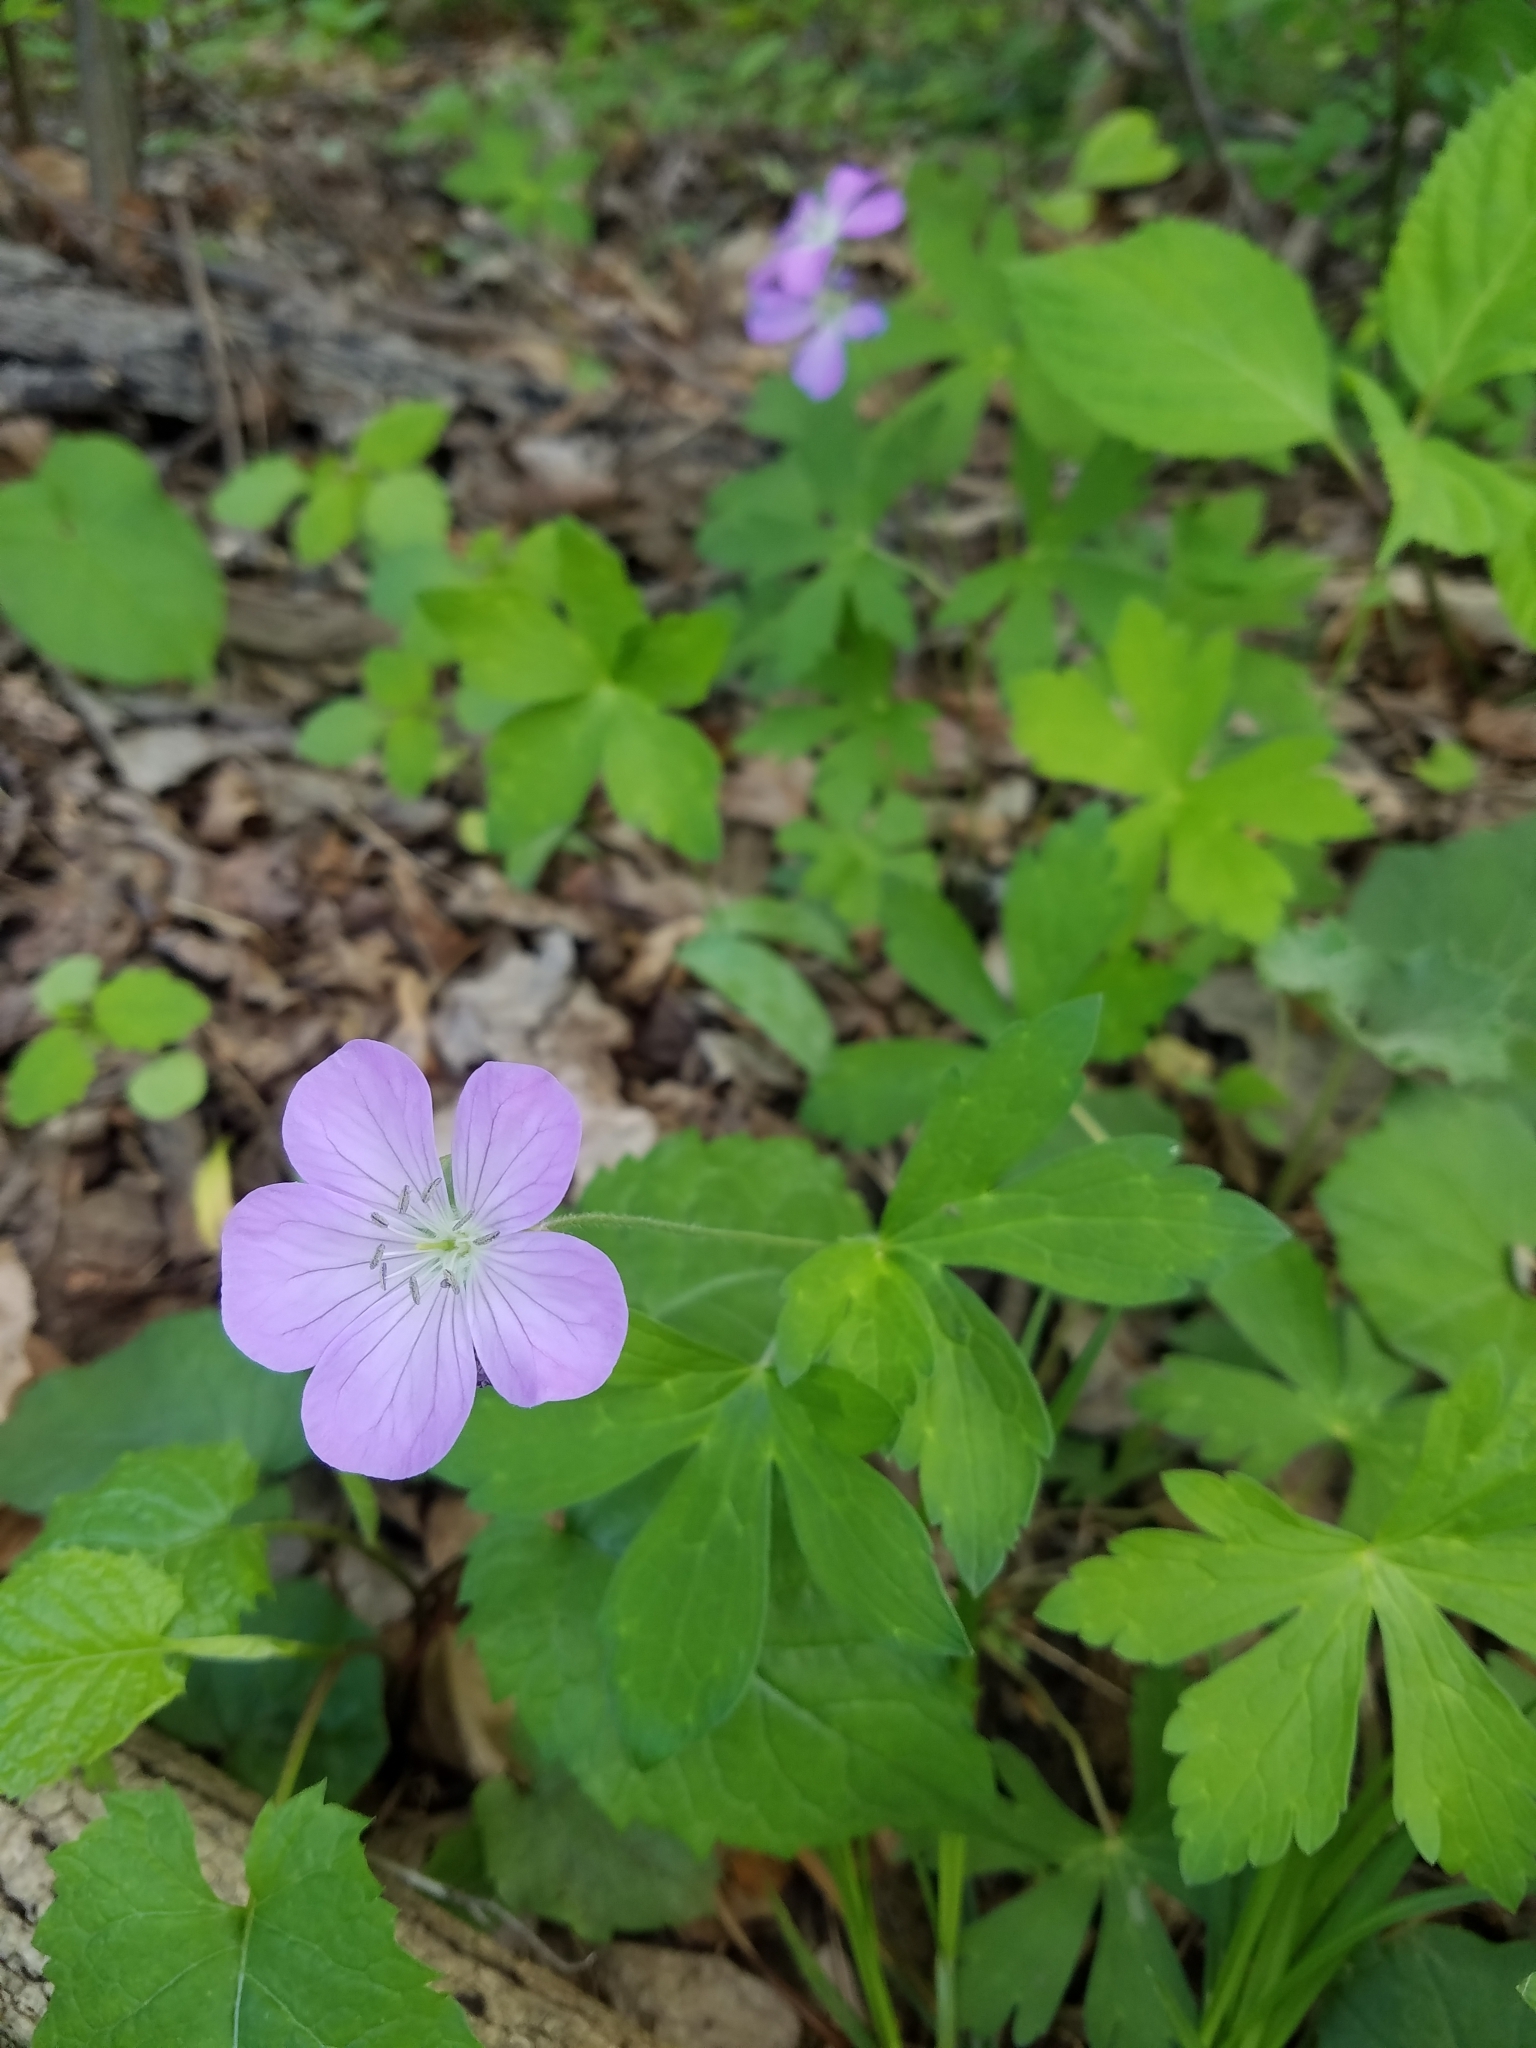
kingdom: Plantae
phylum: Tracheophyta
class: Magnoliopsida
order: Geraniales
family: Geraniaceae
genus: Geranium
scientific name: Geranium maculatum
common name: Spotted geranium
